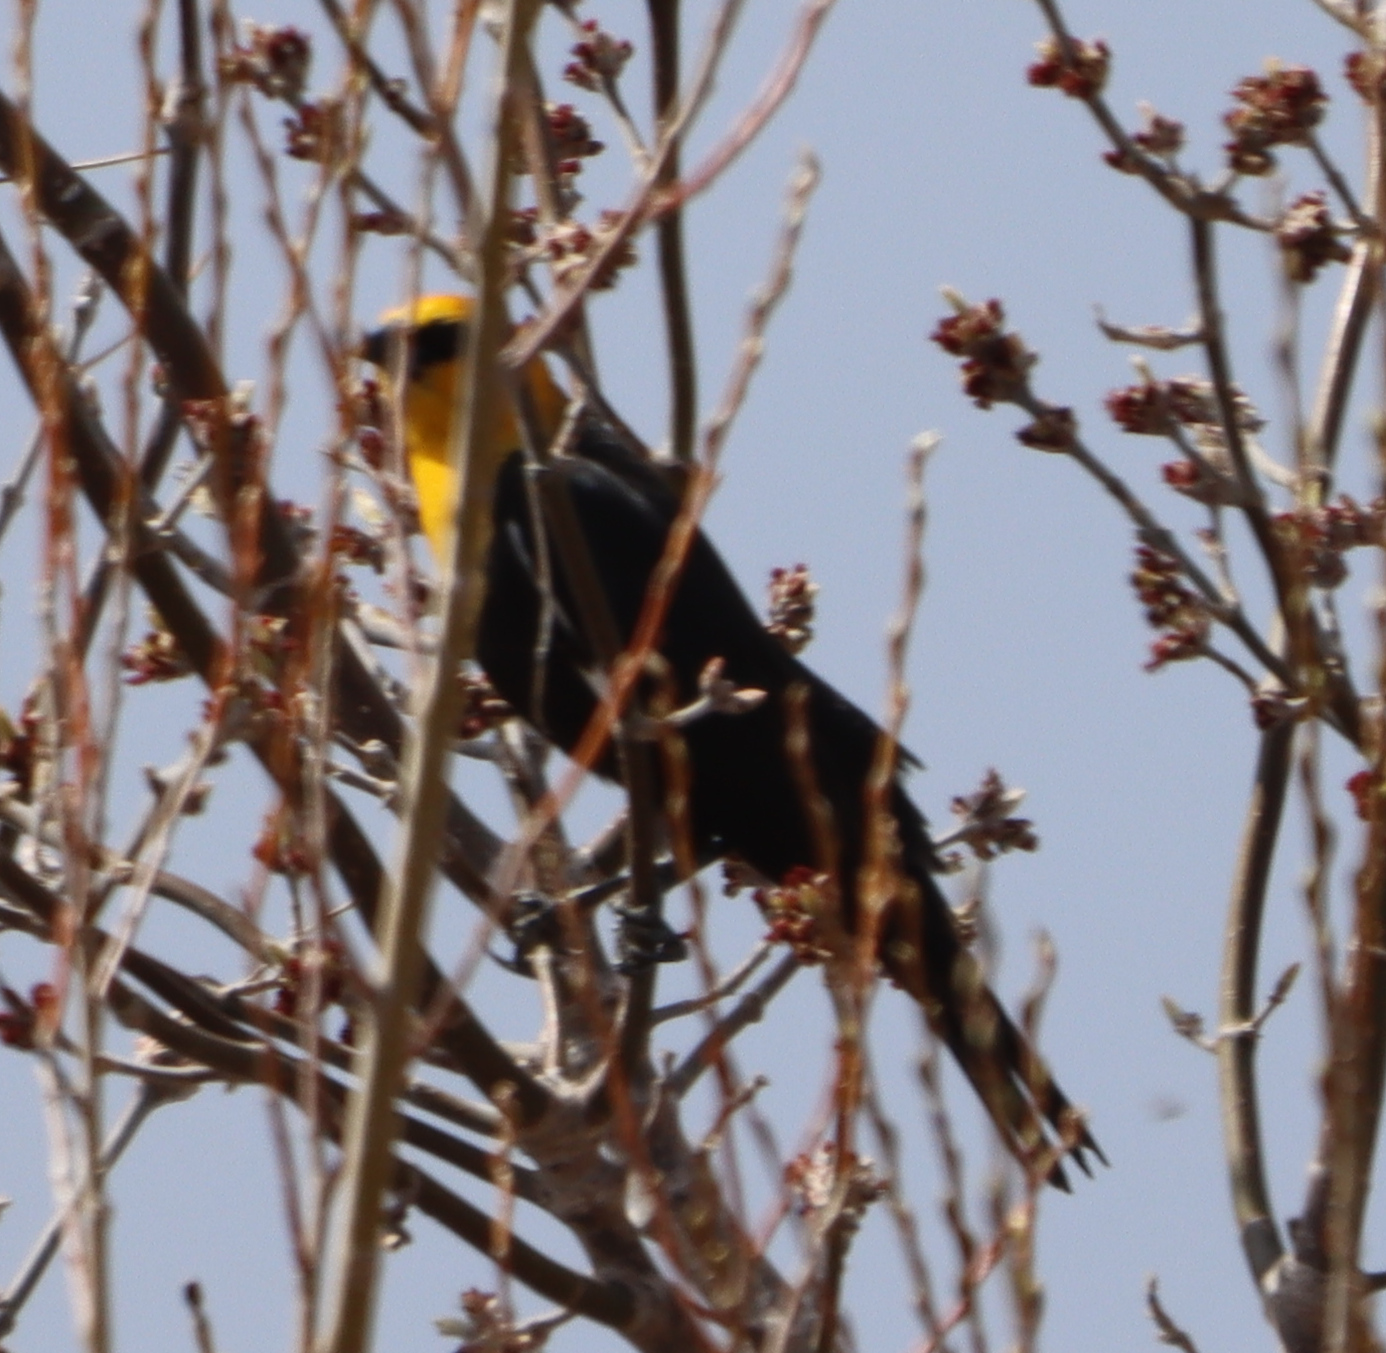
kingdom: Animalia
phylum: Chordata
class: Aves
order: Passeriformes
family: Icteridae
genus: Xanthocephalus
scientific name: Xanthocephalus xanthocephalus
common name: Yellow-headed blackbird
